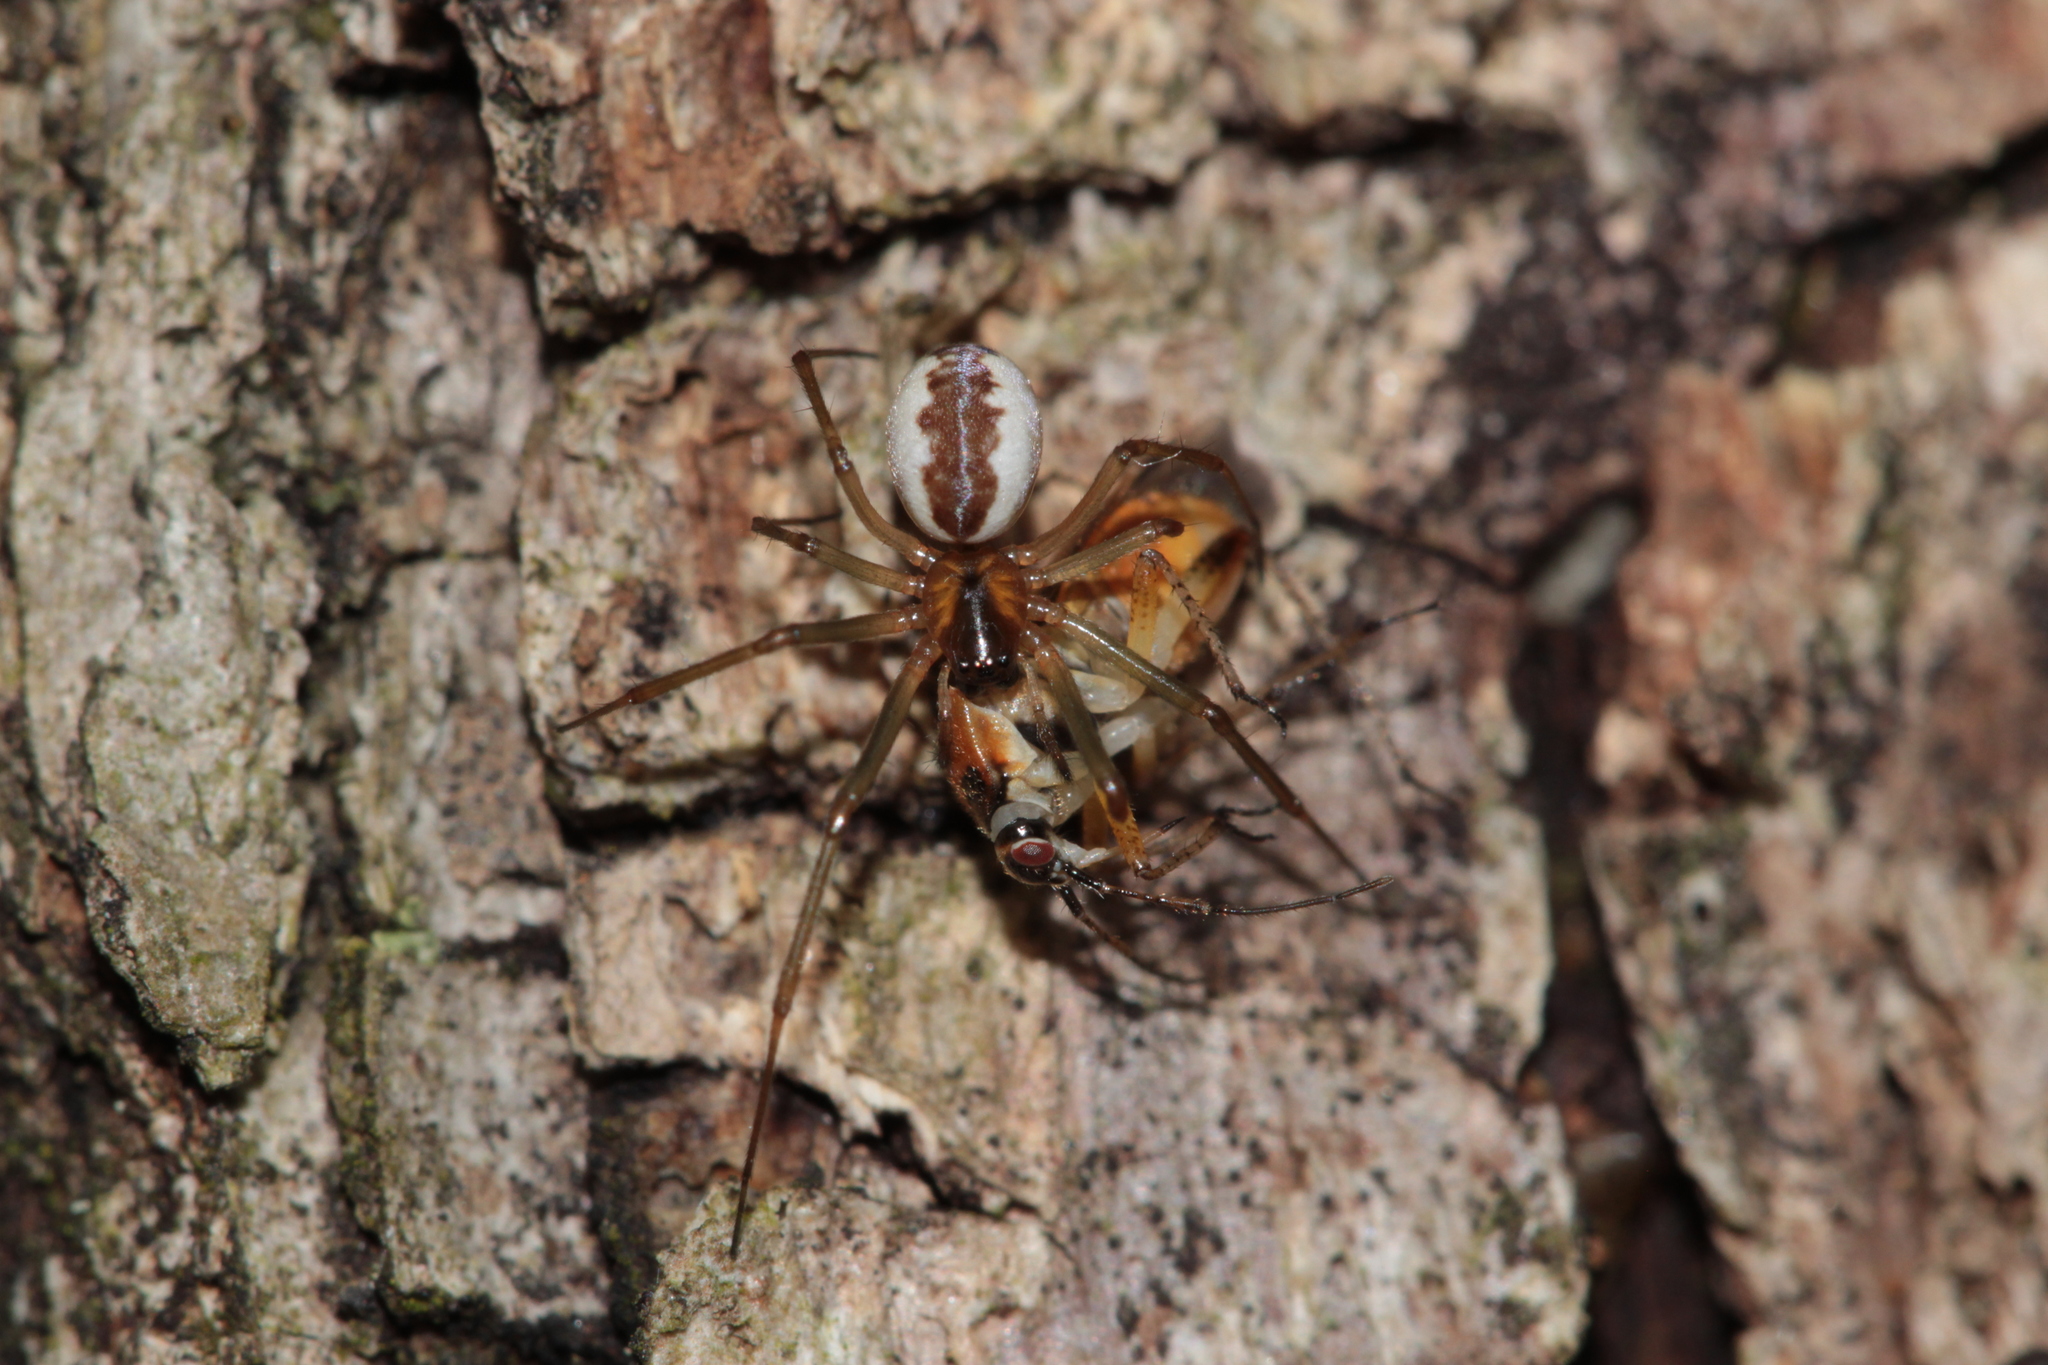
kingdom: Animalia
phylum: Arthropoda
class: Arachnida
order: Araneae
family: Linyphiidae
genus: Neriene
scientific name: Neriene peltata
